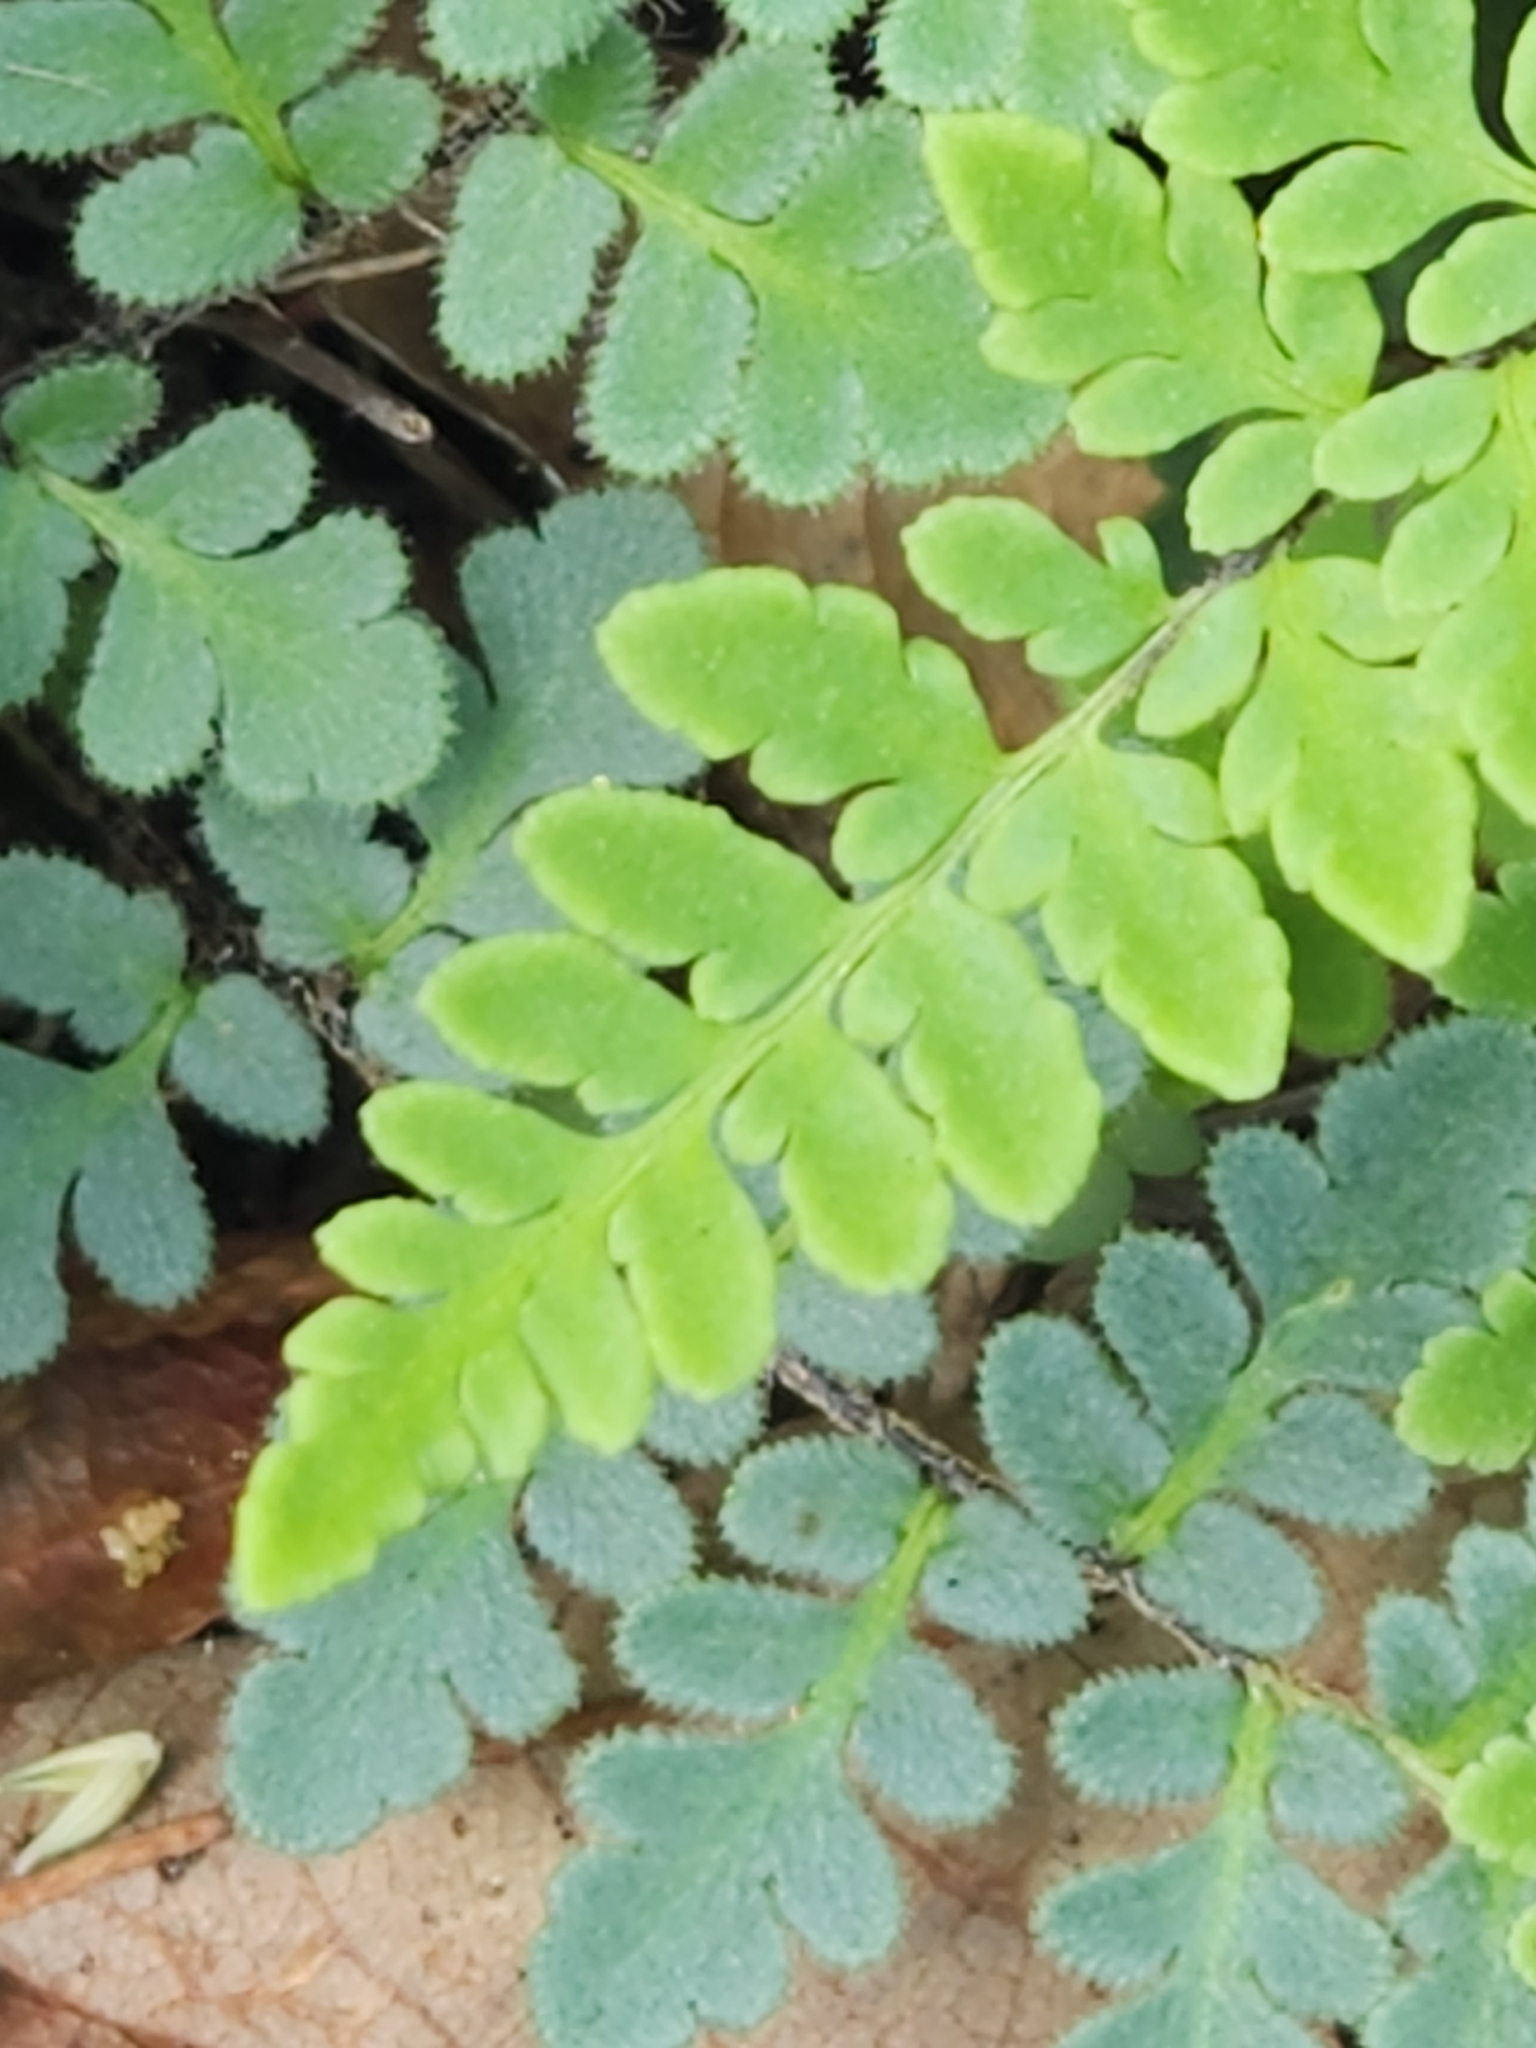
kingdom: Plantae
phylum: Tracheophyta
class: Polypodiopsida
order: Polypodiales
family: Pteridaceae
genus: Myriopteris
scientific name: Myriopteris alabamensis
